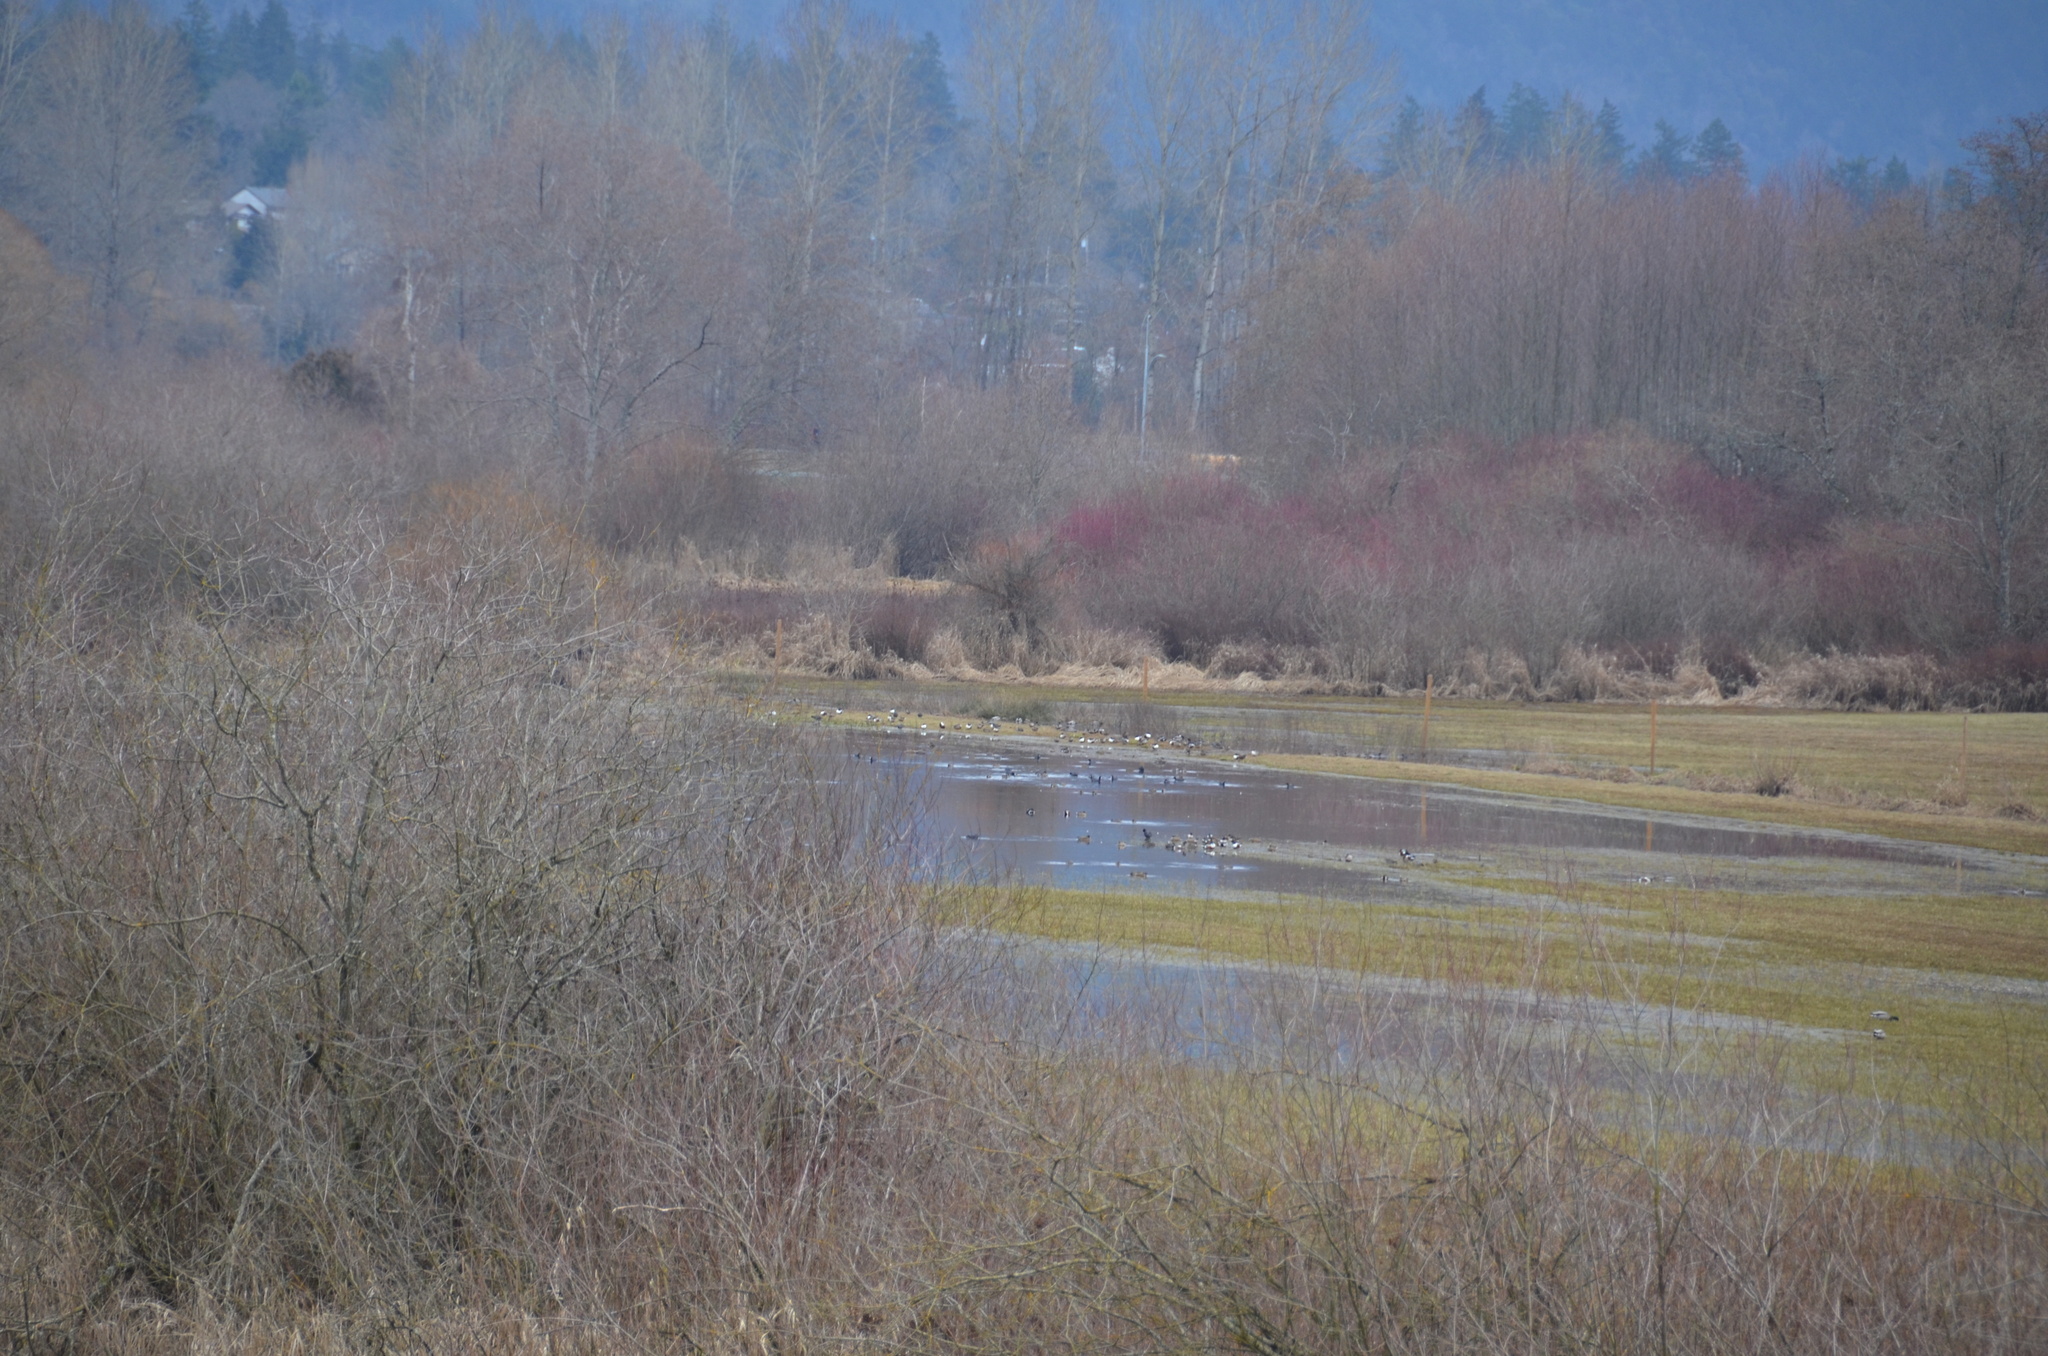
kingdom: Animalia
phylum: Chordata
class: Aves
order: Anseriformes
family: Anatidae
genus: Spatula
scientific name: Spatula clypeata
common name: Northern shoveler
